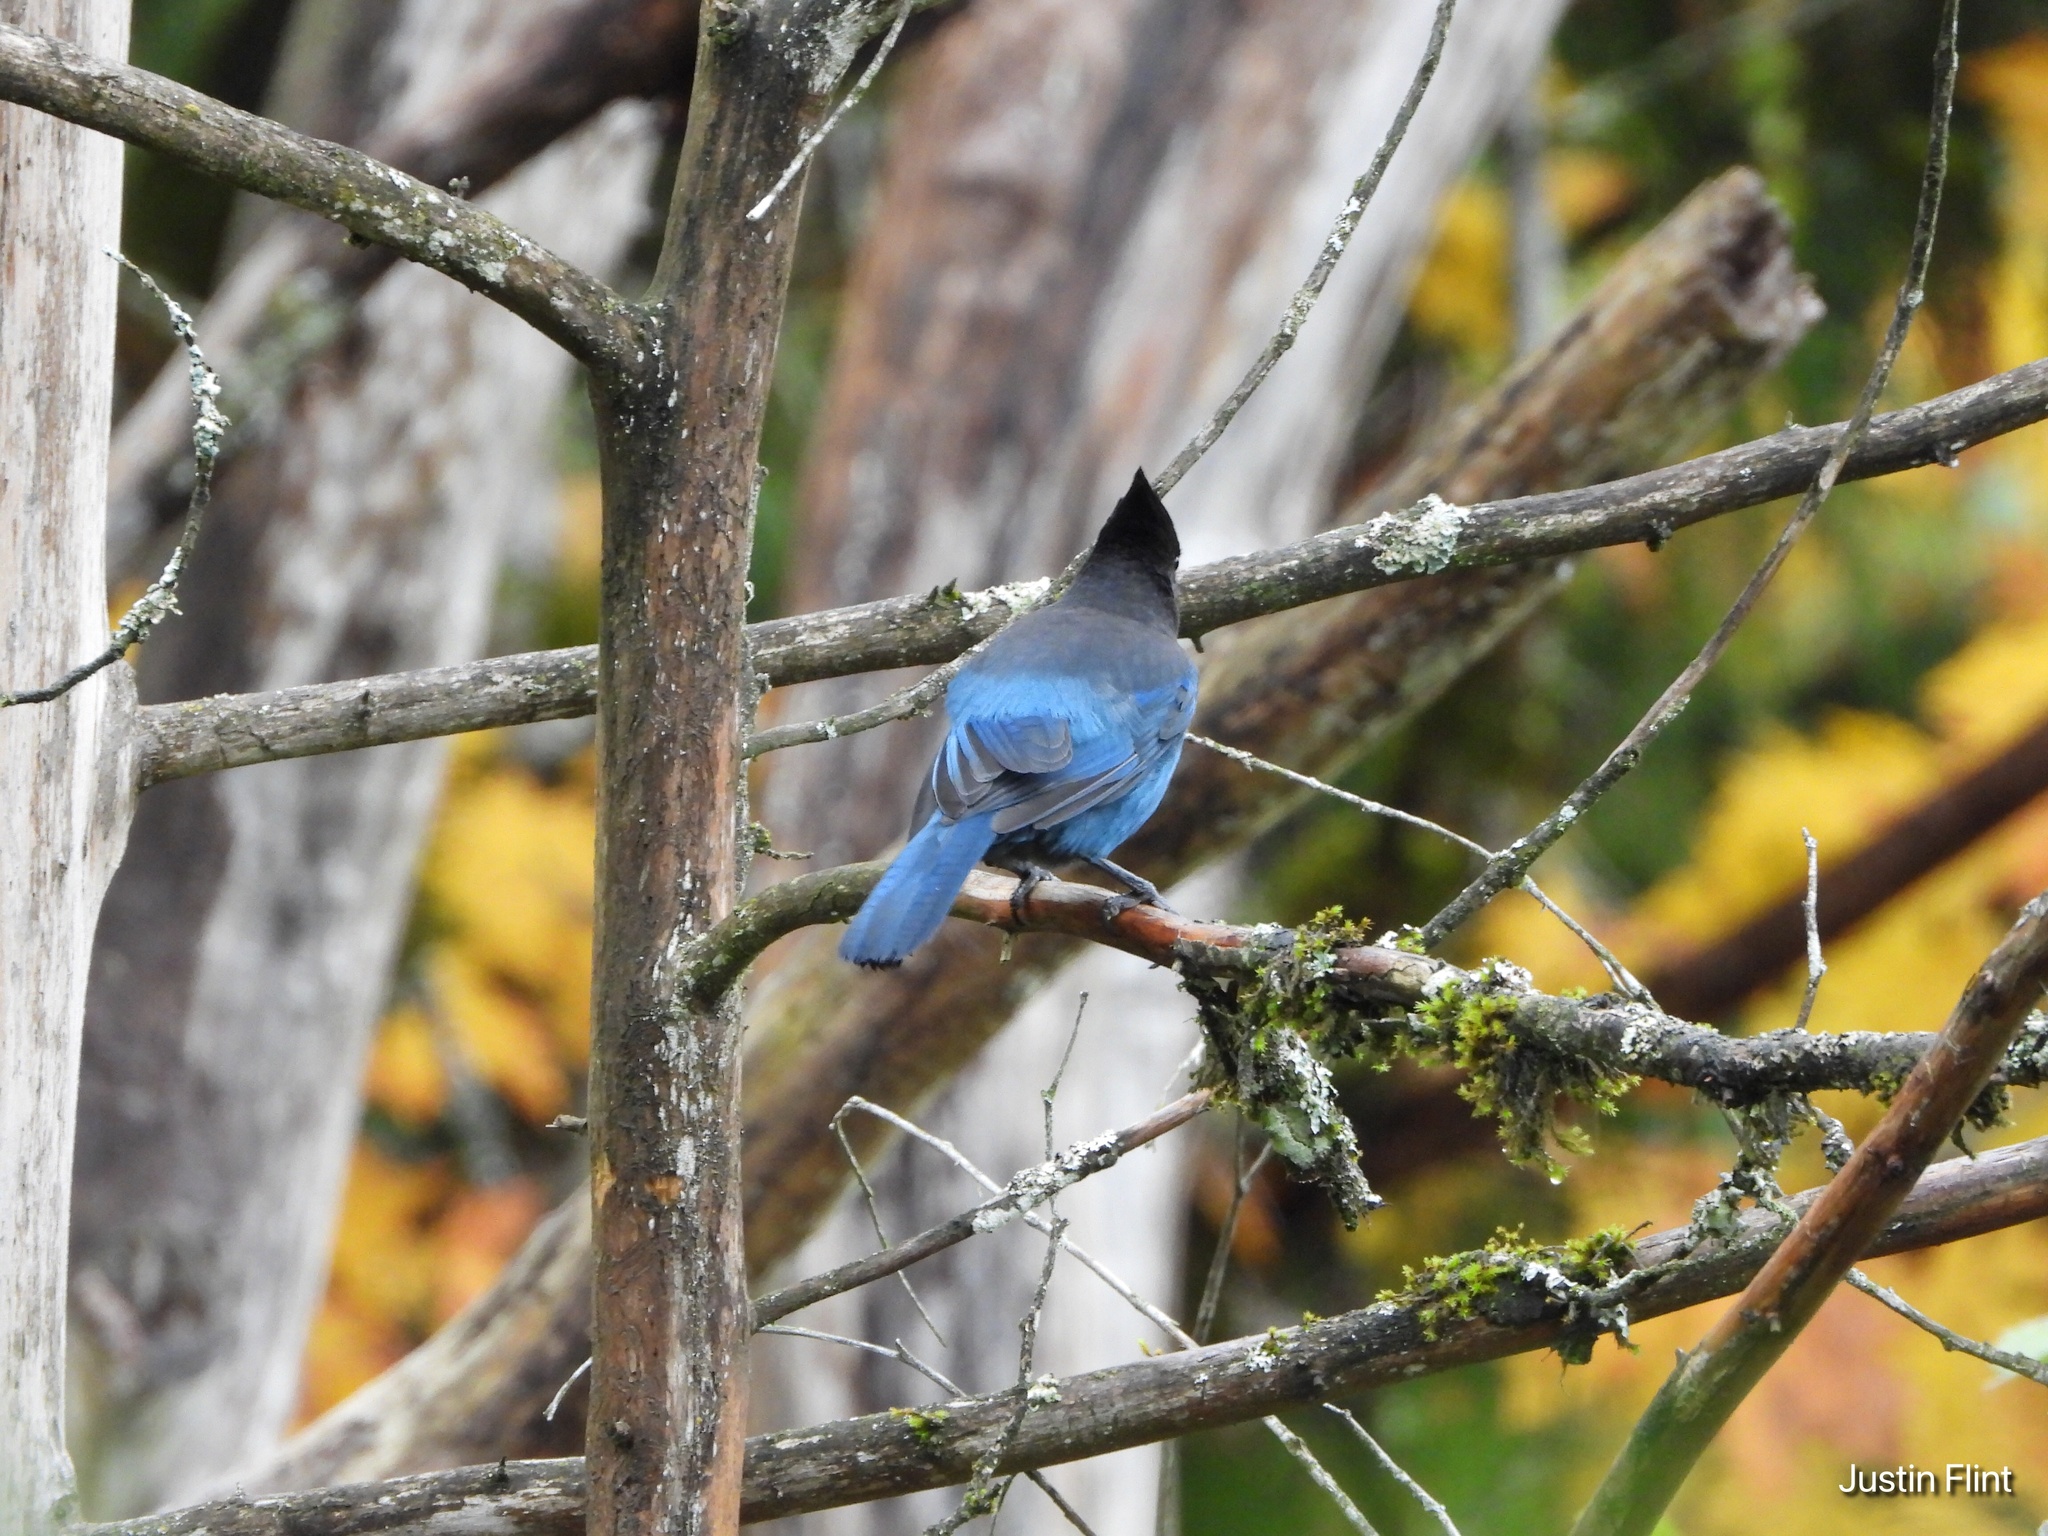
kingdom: Animalia
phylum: Chordata
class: Aves
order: Passeriformes
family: Corvidae
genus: Cyanocitta
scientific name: Cyanocitta stelleri
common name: Steller's jay
